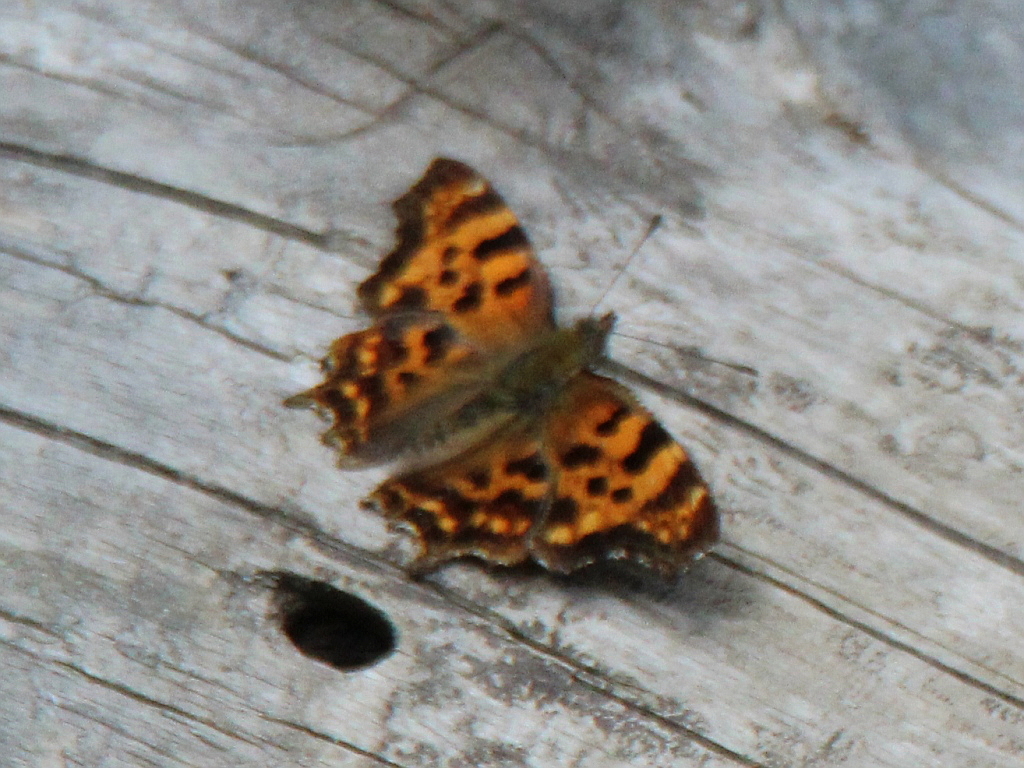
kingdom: Animalia
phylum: Arthropoda
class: Insecta
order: Lepidoptera
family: Nymphalidae
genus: Polygonia
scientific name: Polygonia c-album
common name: Comma
